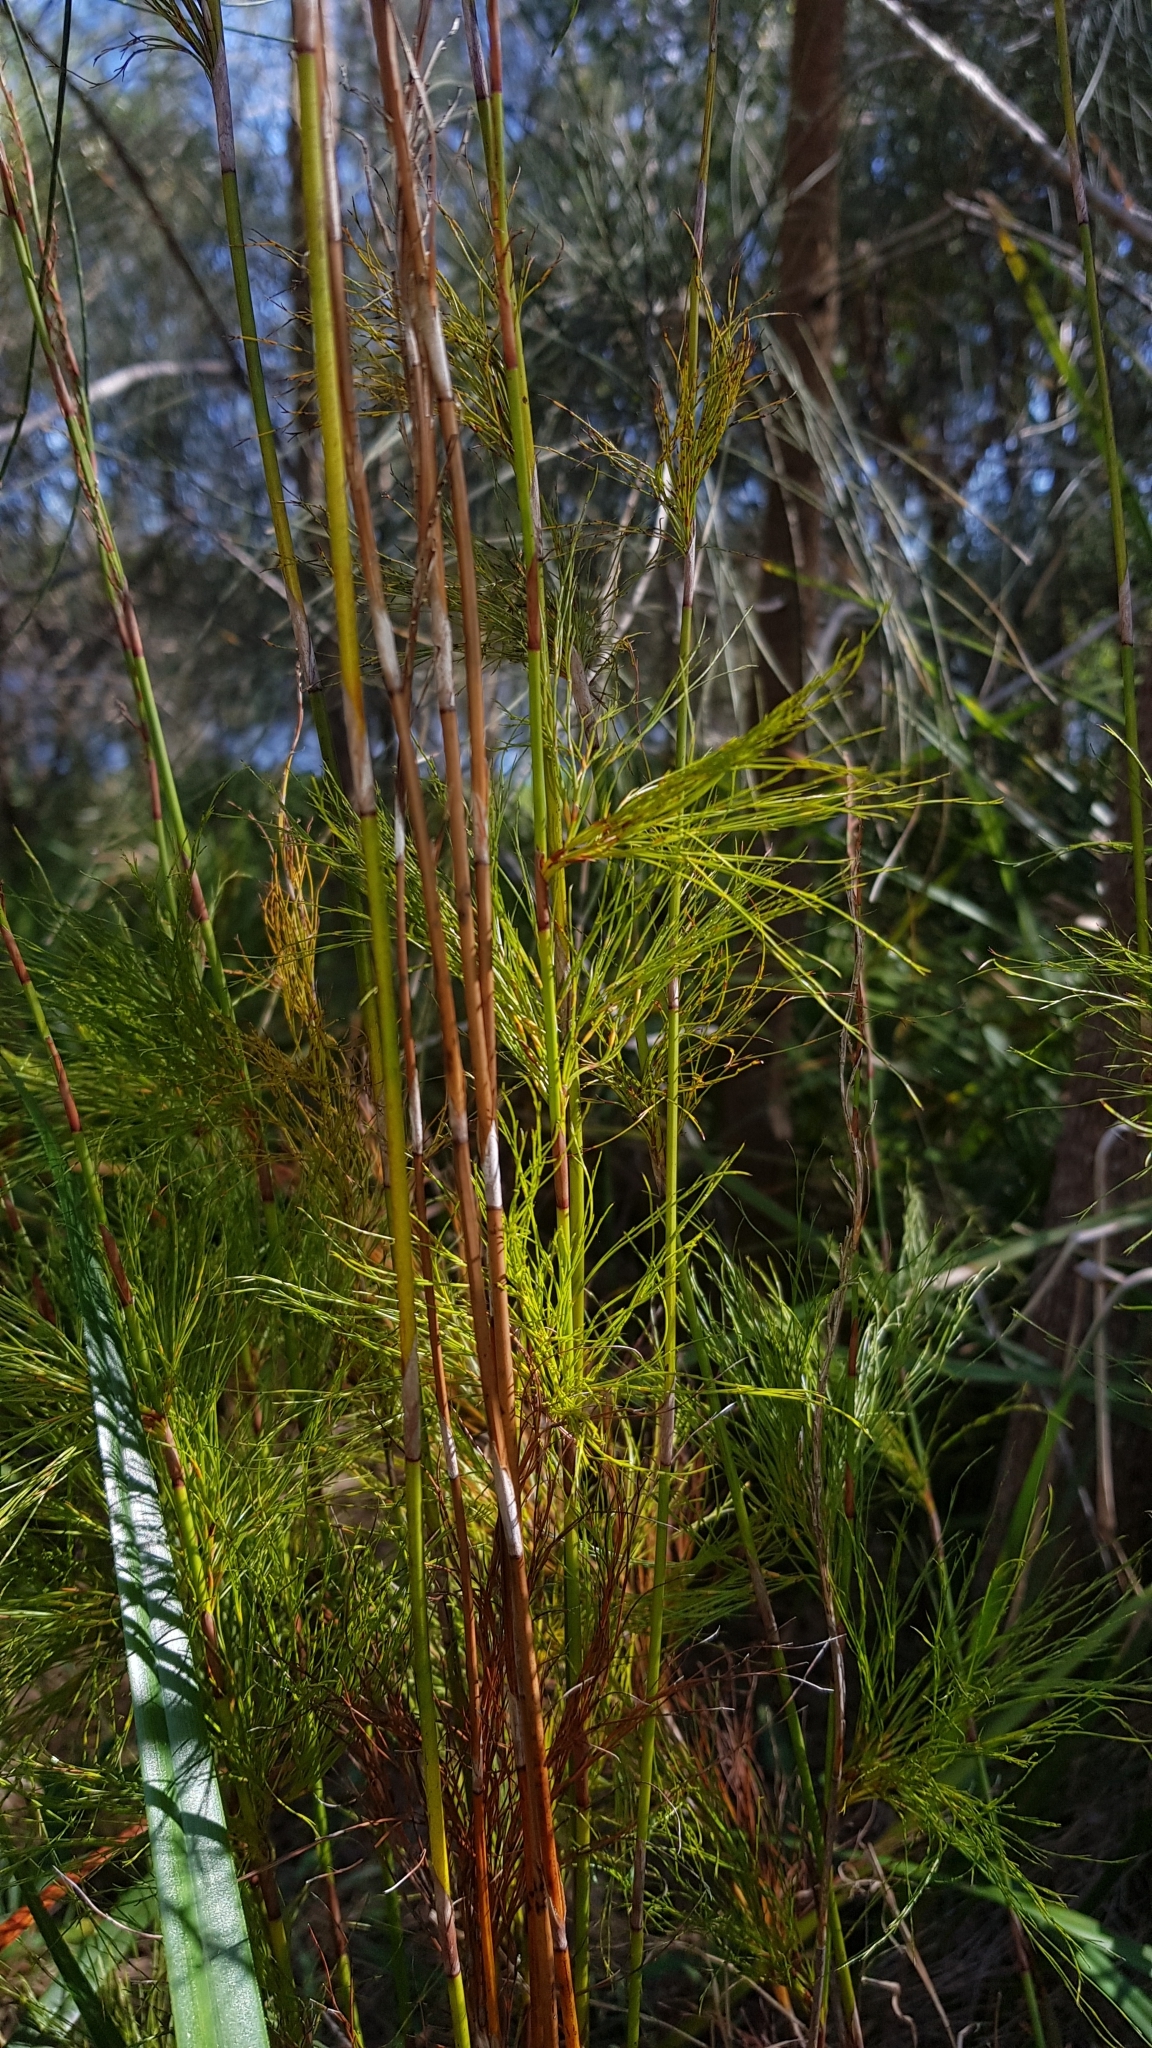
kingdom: Plantae
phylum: Tracheophyta
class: Liliopsida
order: Poales
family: Restionaceae
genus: Baloskion
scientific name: Baloskion tetraphyllum
